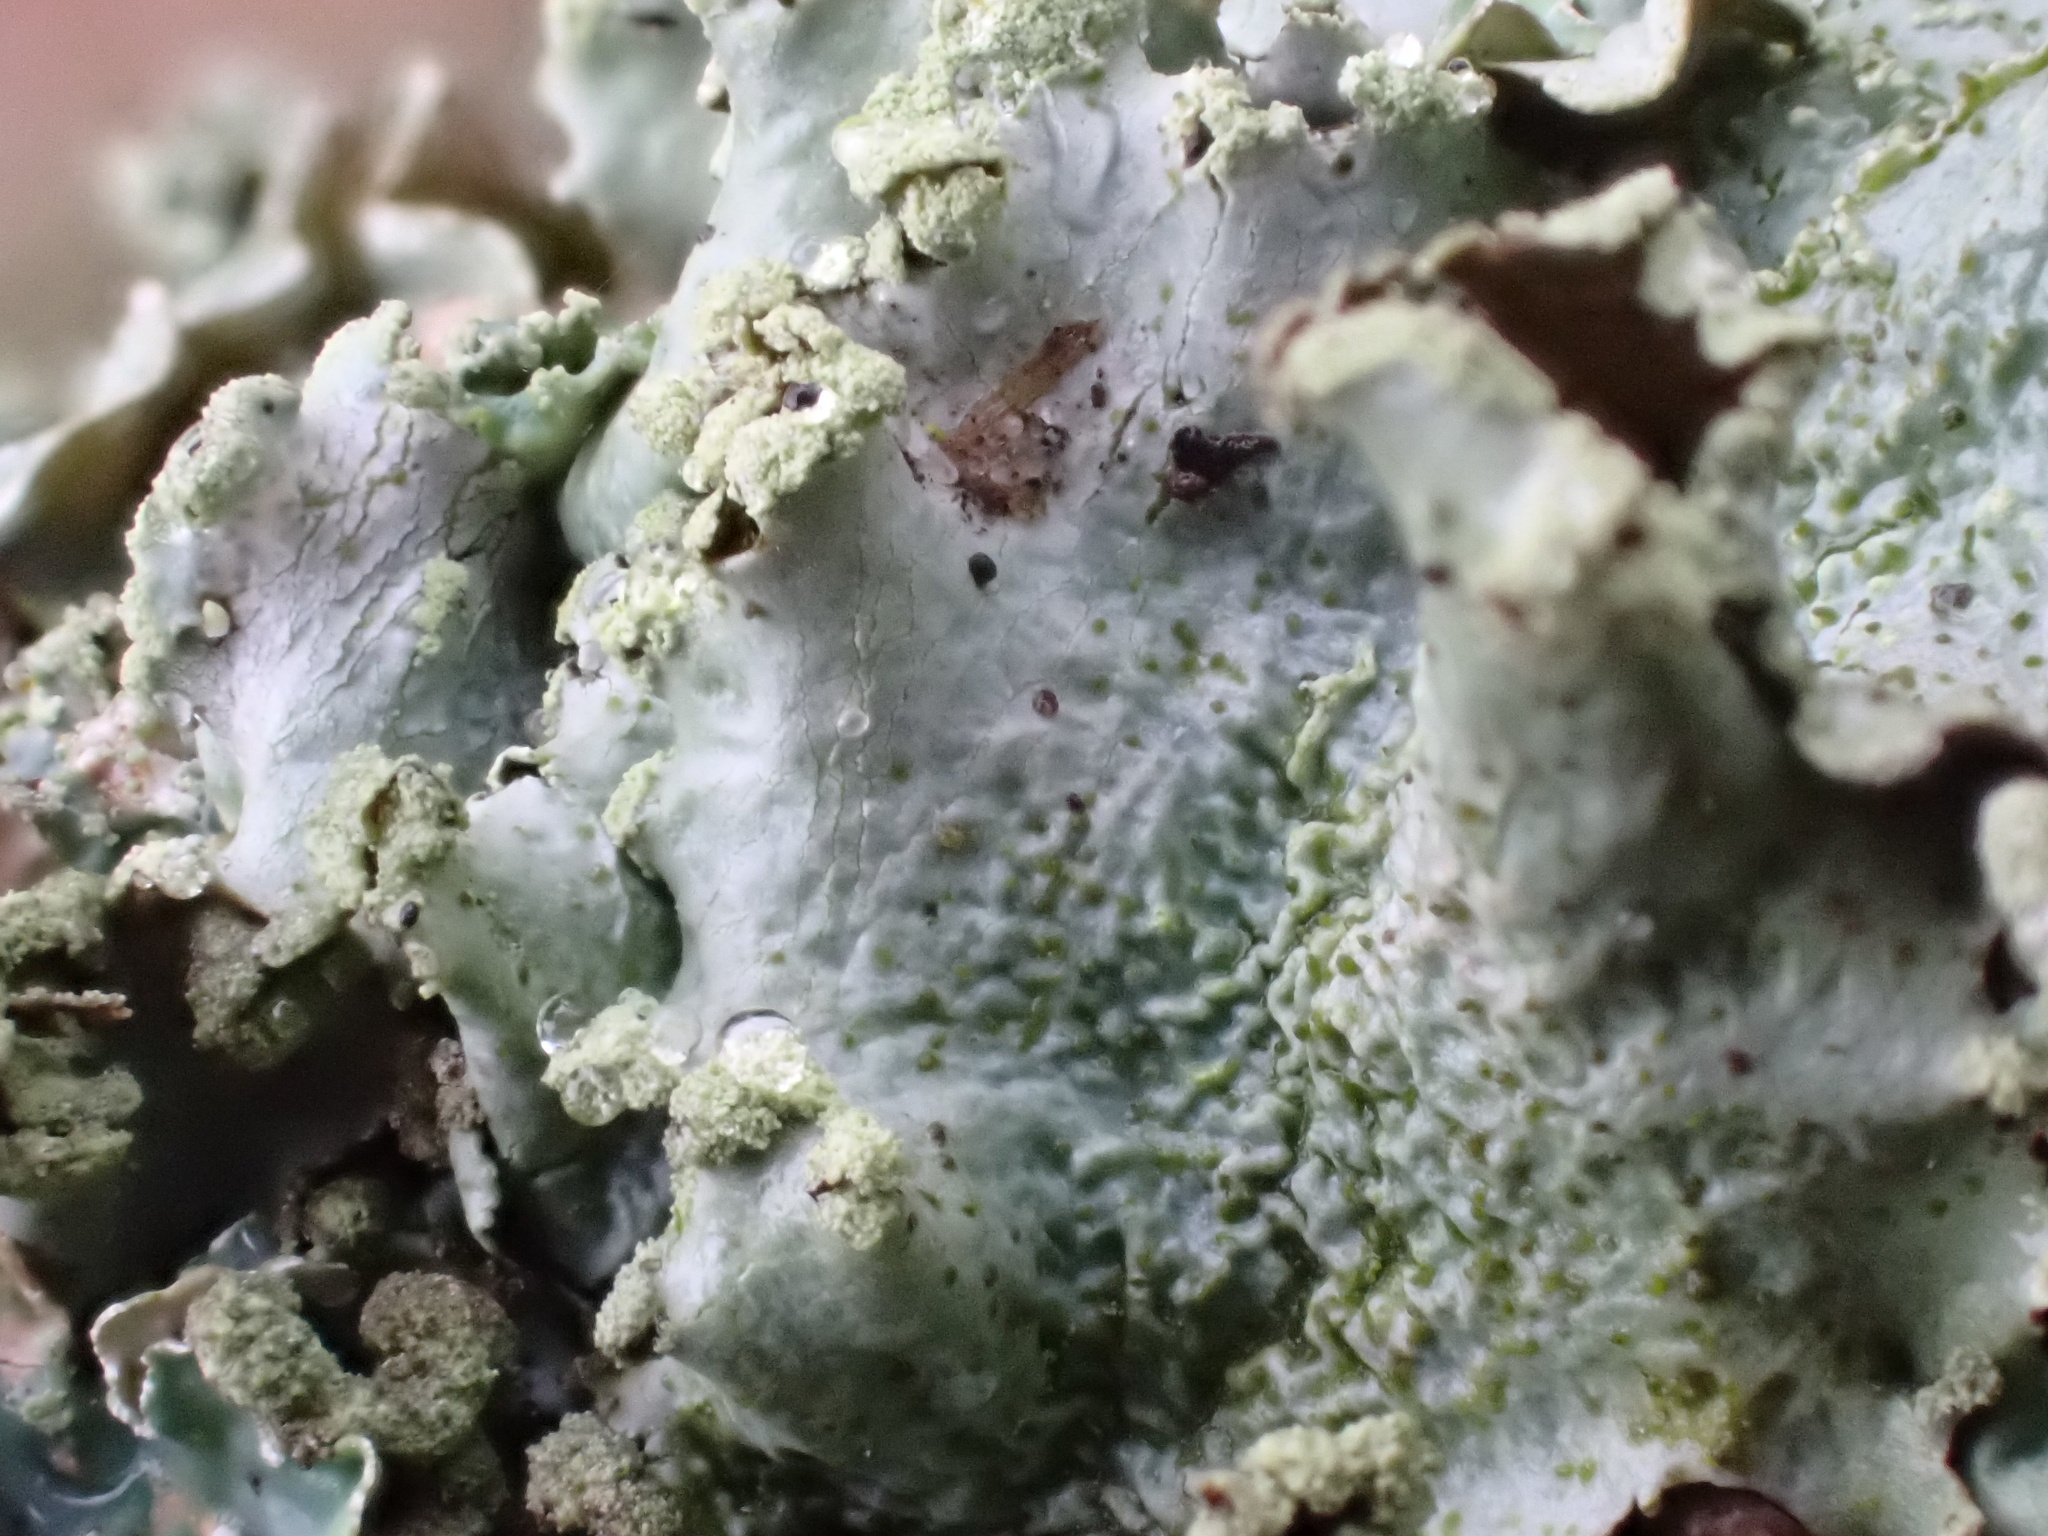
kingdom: Fungi
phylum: Ascomycota
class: Lecanoromycetes
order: Lecanorales
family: Parmeliaceae
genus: Parmotrema
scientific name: Parmotrema perlatum
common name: Black stone flower
